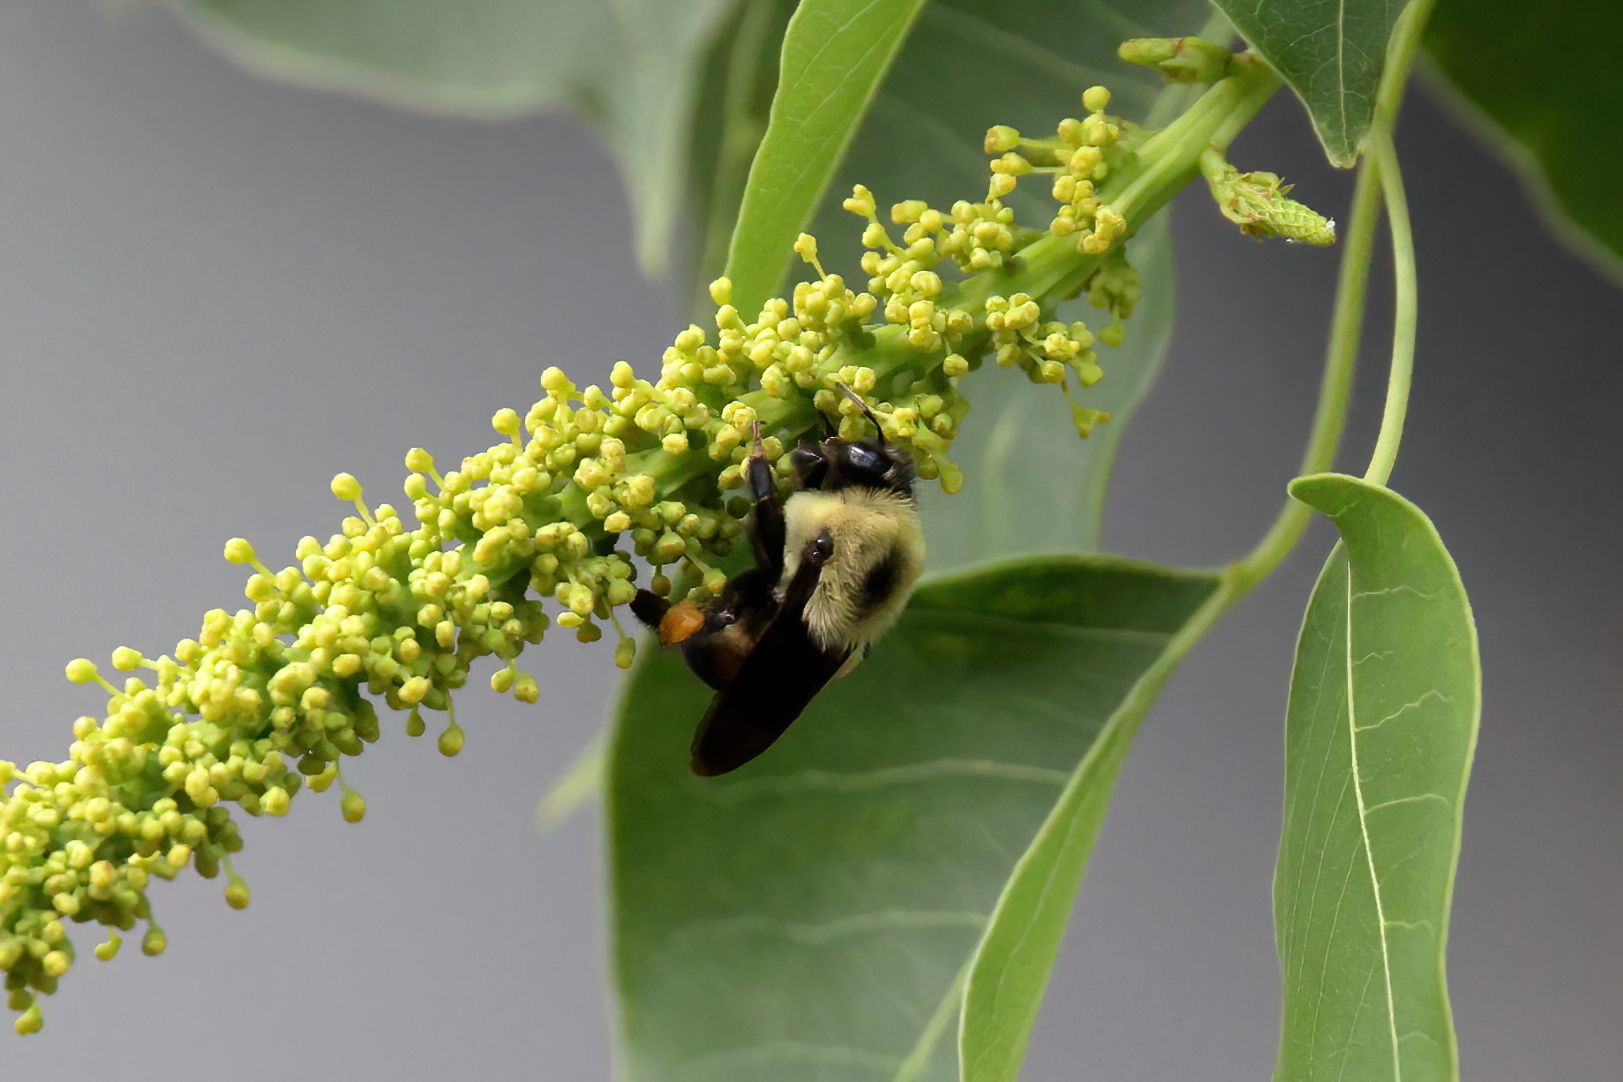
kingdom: Animalia
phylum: Arthropoda
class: Insecta
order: Hymenoptera
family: Apidae
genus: Bombus
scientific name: Bombus griseocollis
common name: Brown-belted bumble bee
